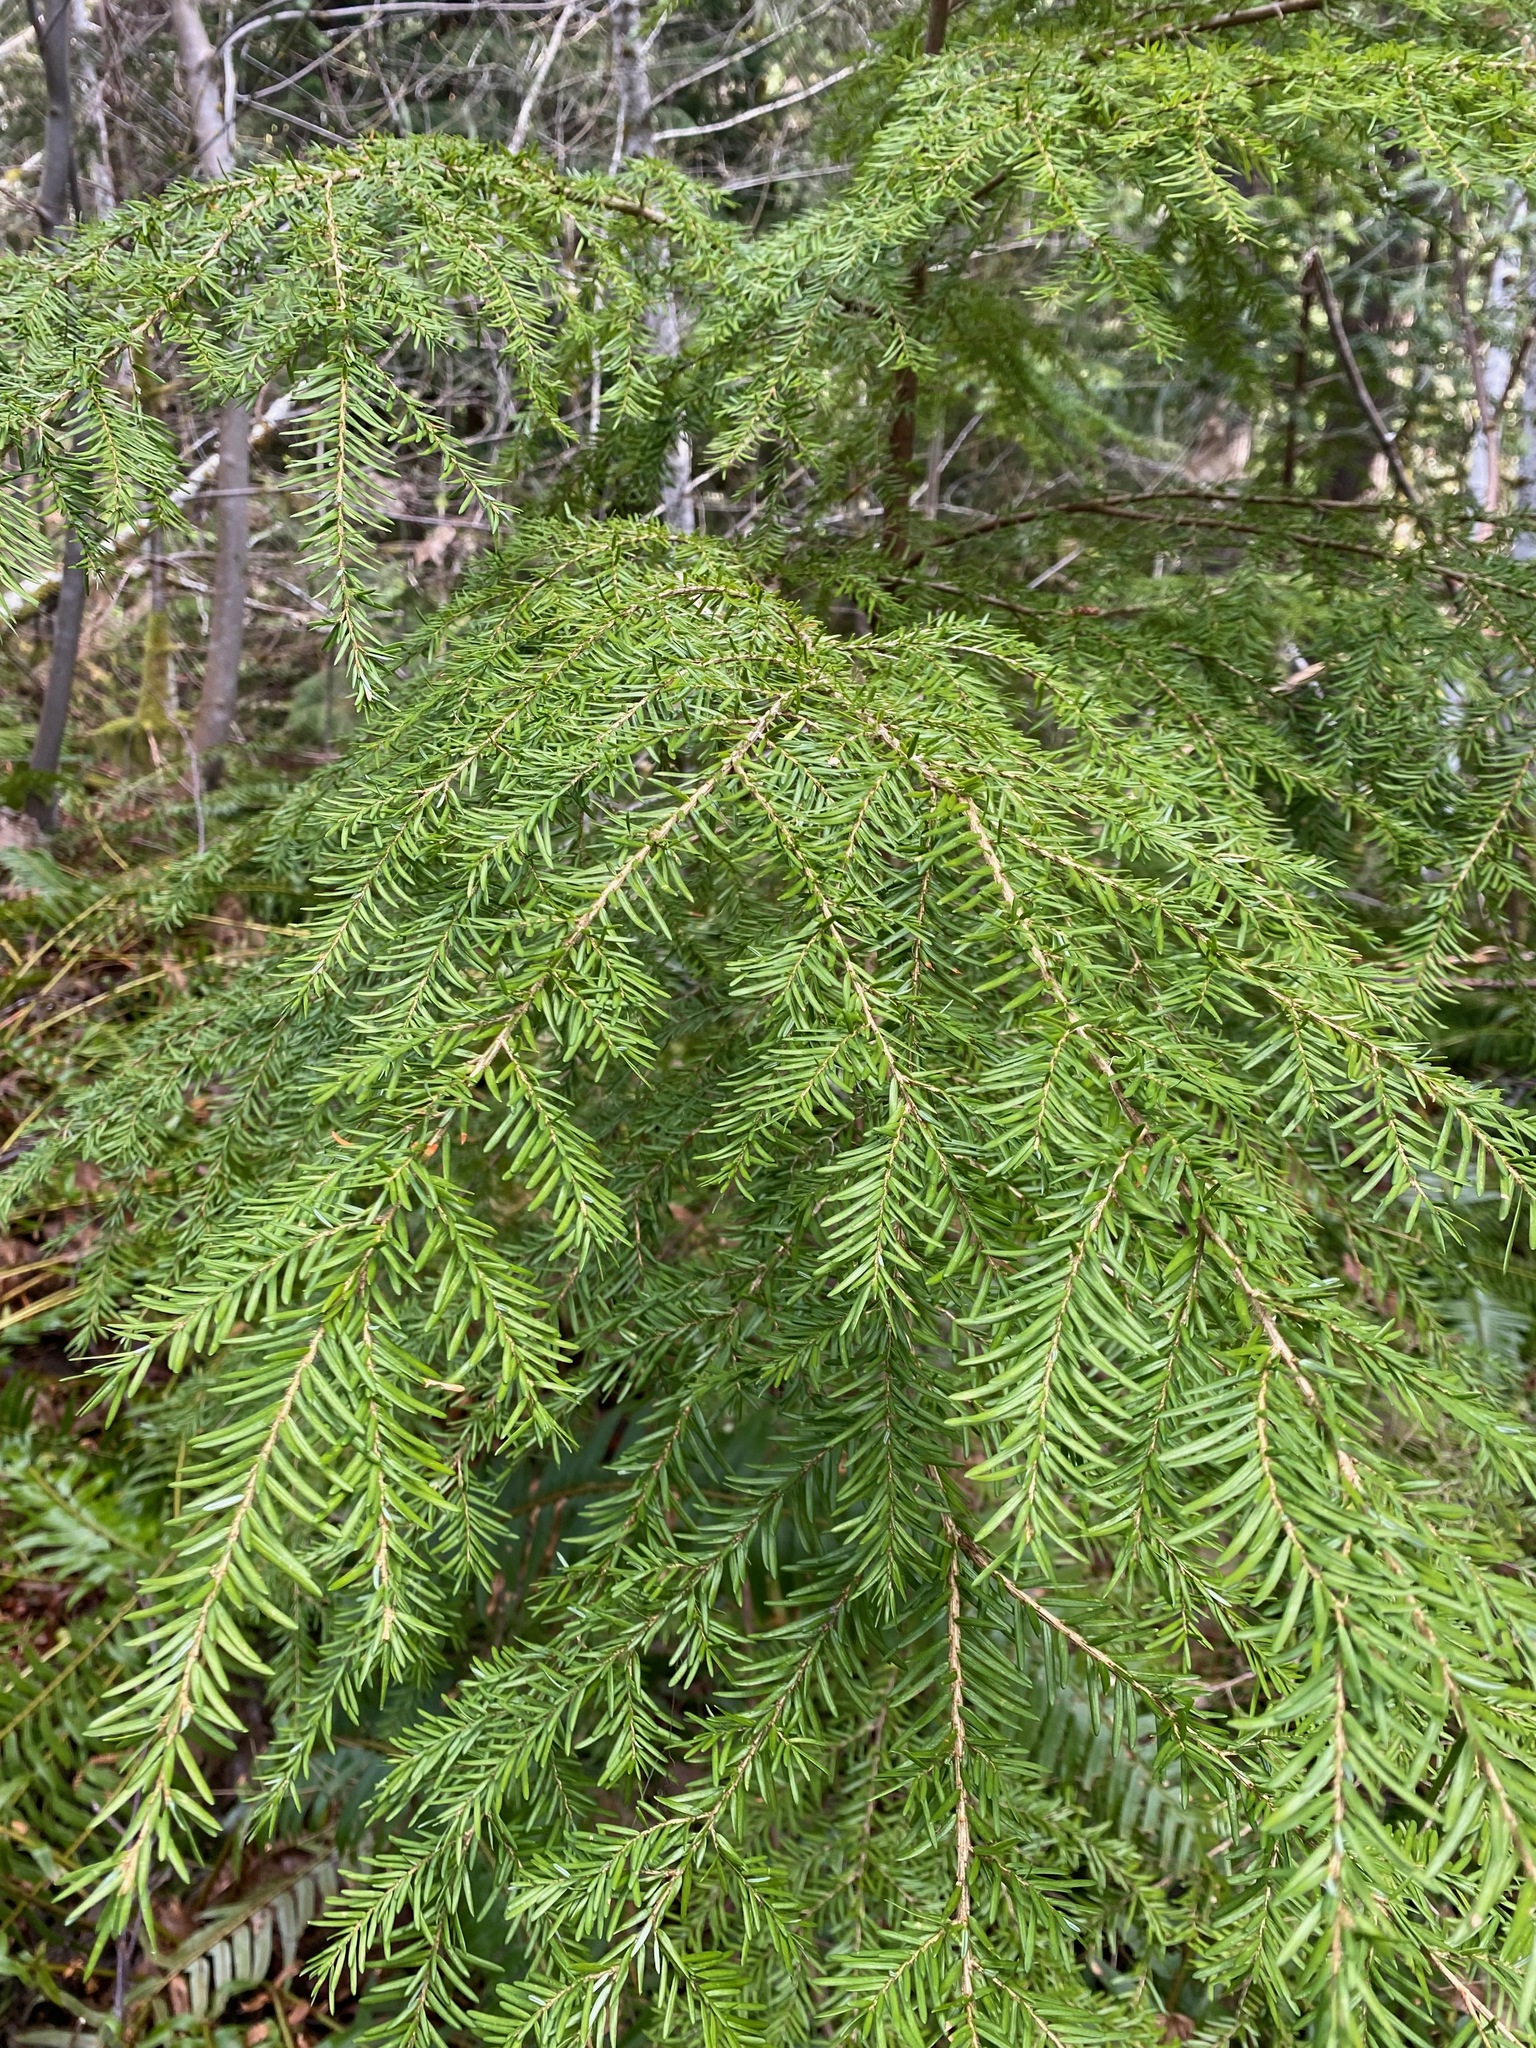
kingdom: Plantae
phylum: Tracheophyta
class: Pinopsida
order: Pinales
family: Pinaceae
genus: Tsuga
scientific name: Tsuga heterophylla
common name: Western hemlock
